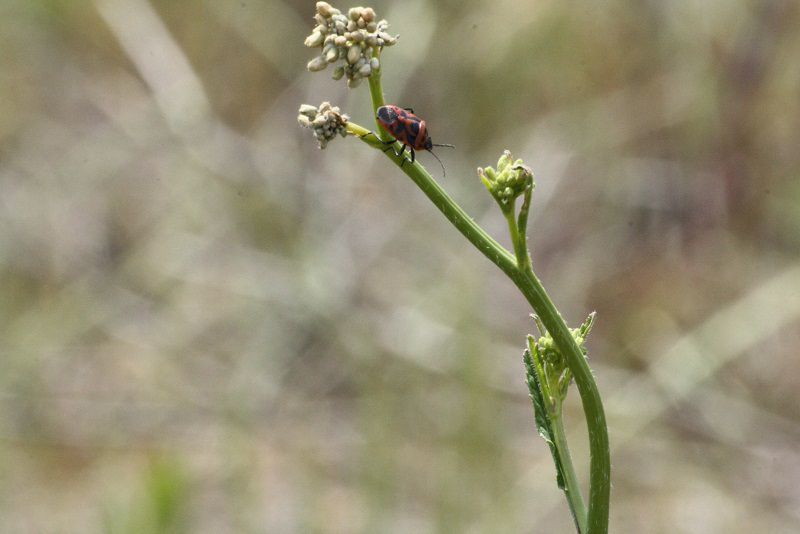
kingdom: Animalia
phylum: Arthropoda
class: Insecta
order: Hemiptera
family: Pentatomidae
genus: Eurydema
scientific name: Eurydema ornata
